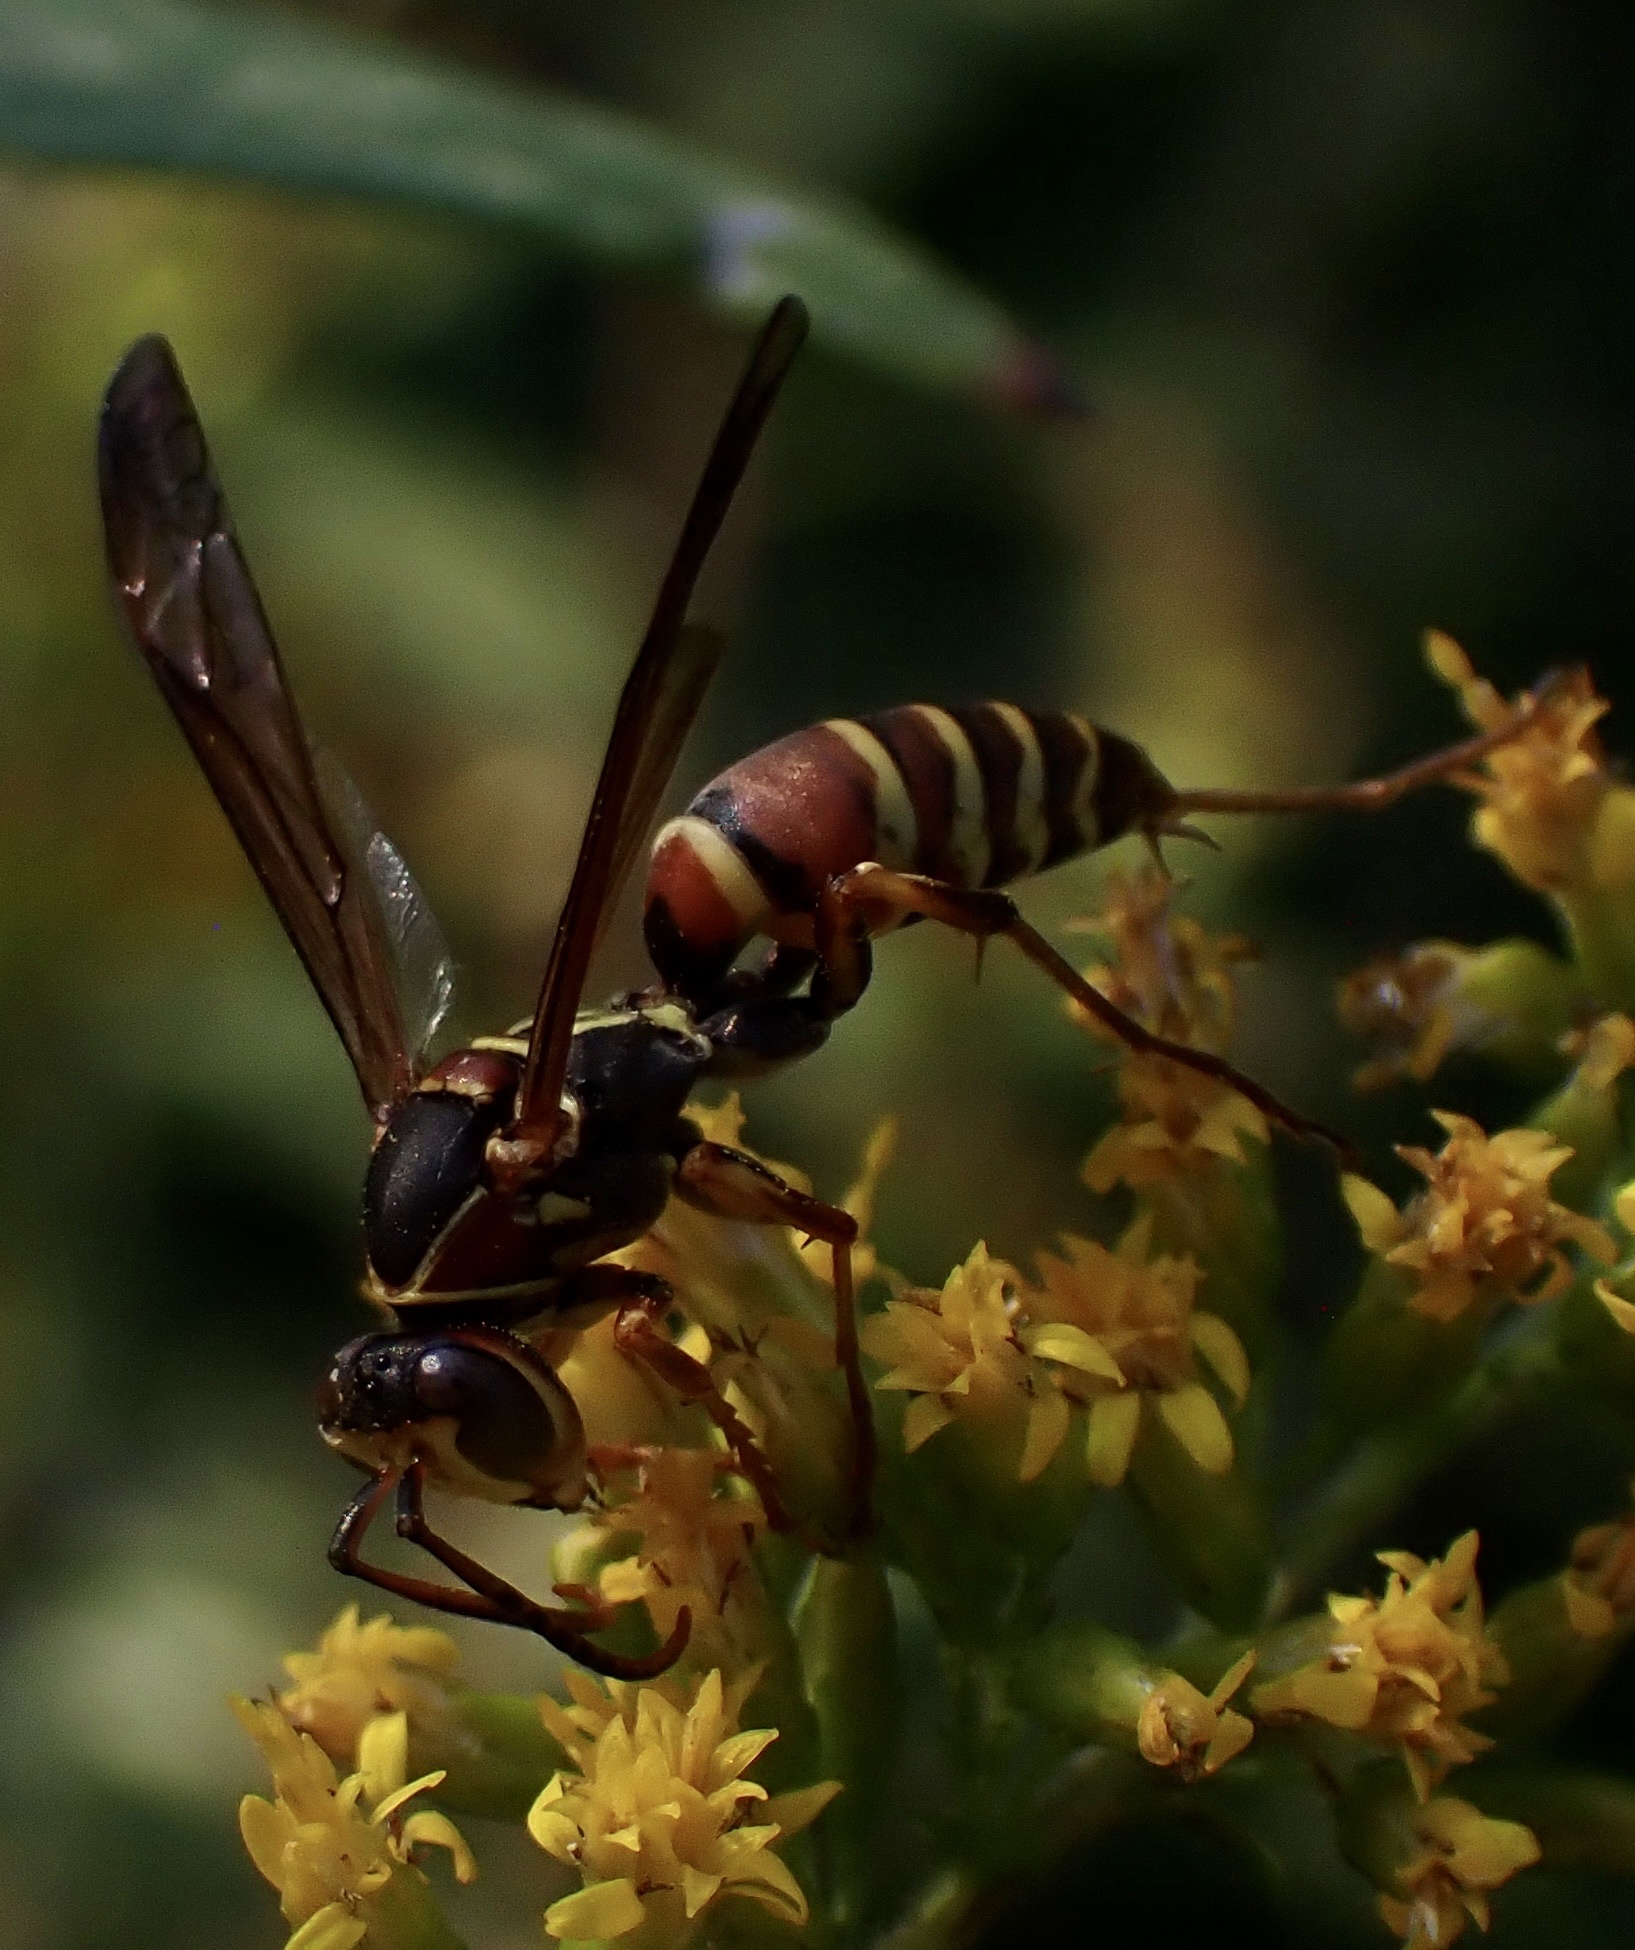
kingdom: Animalia
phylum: Arthropoda
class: Insecta
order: Hymenoptera
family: Eumenidae
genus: Polistes
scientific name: Polistes dorsalis
